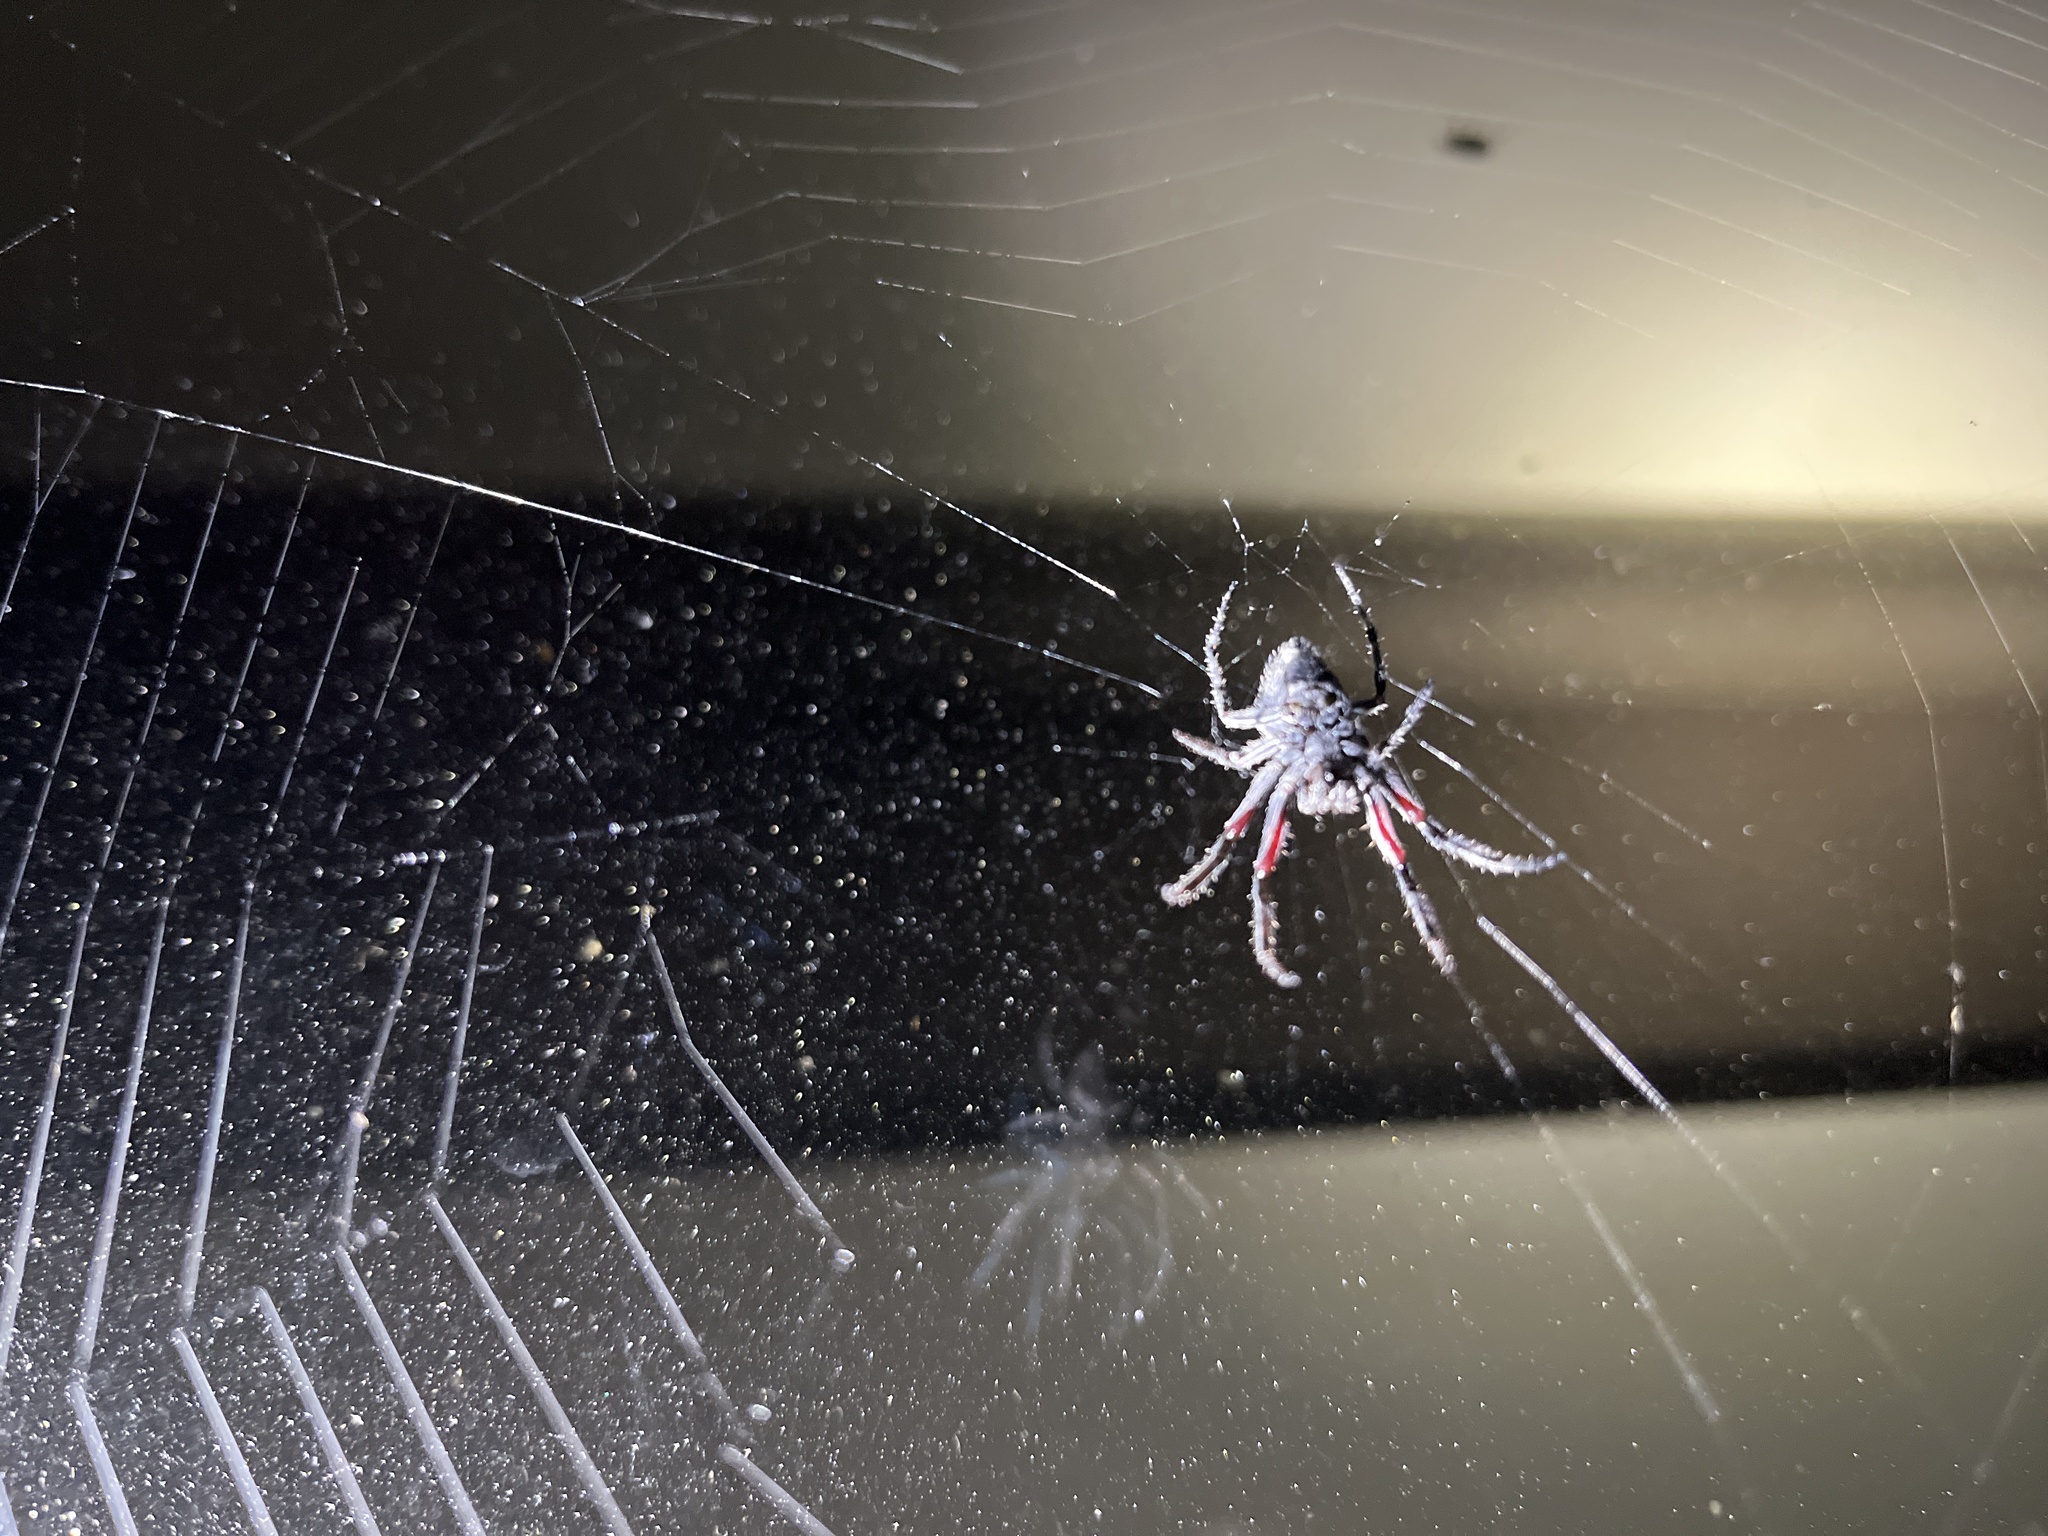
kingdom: Animalia
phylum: Arthropoda
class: Arachnida
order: Araneae
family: Araneidae
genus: Eriophora
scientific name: Eriophora pustulosa
